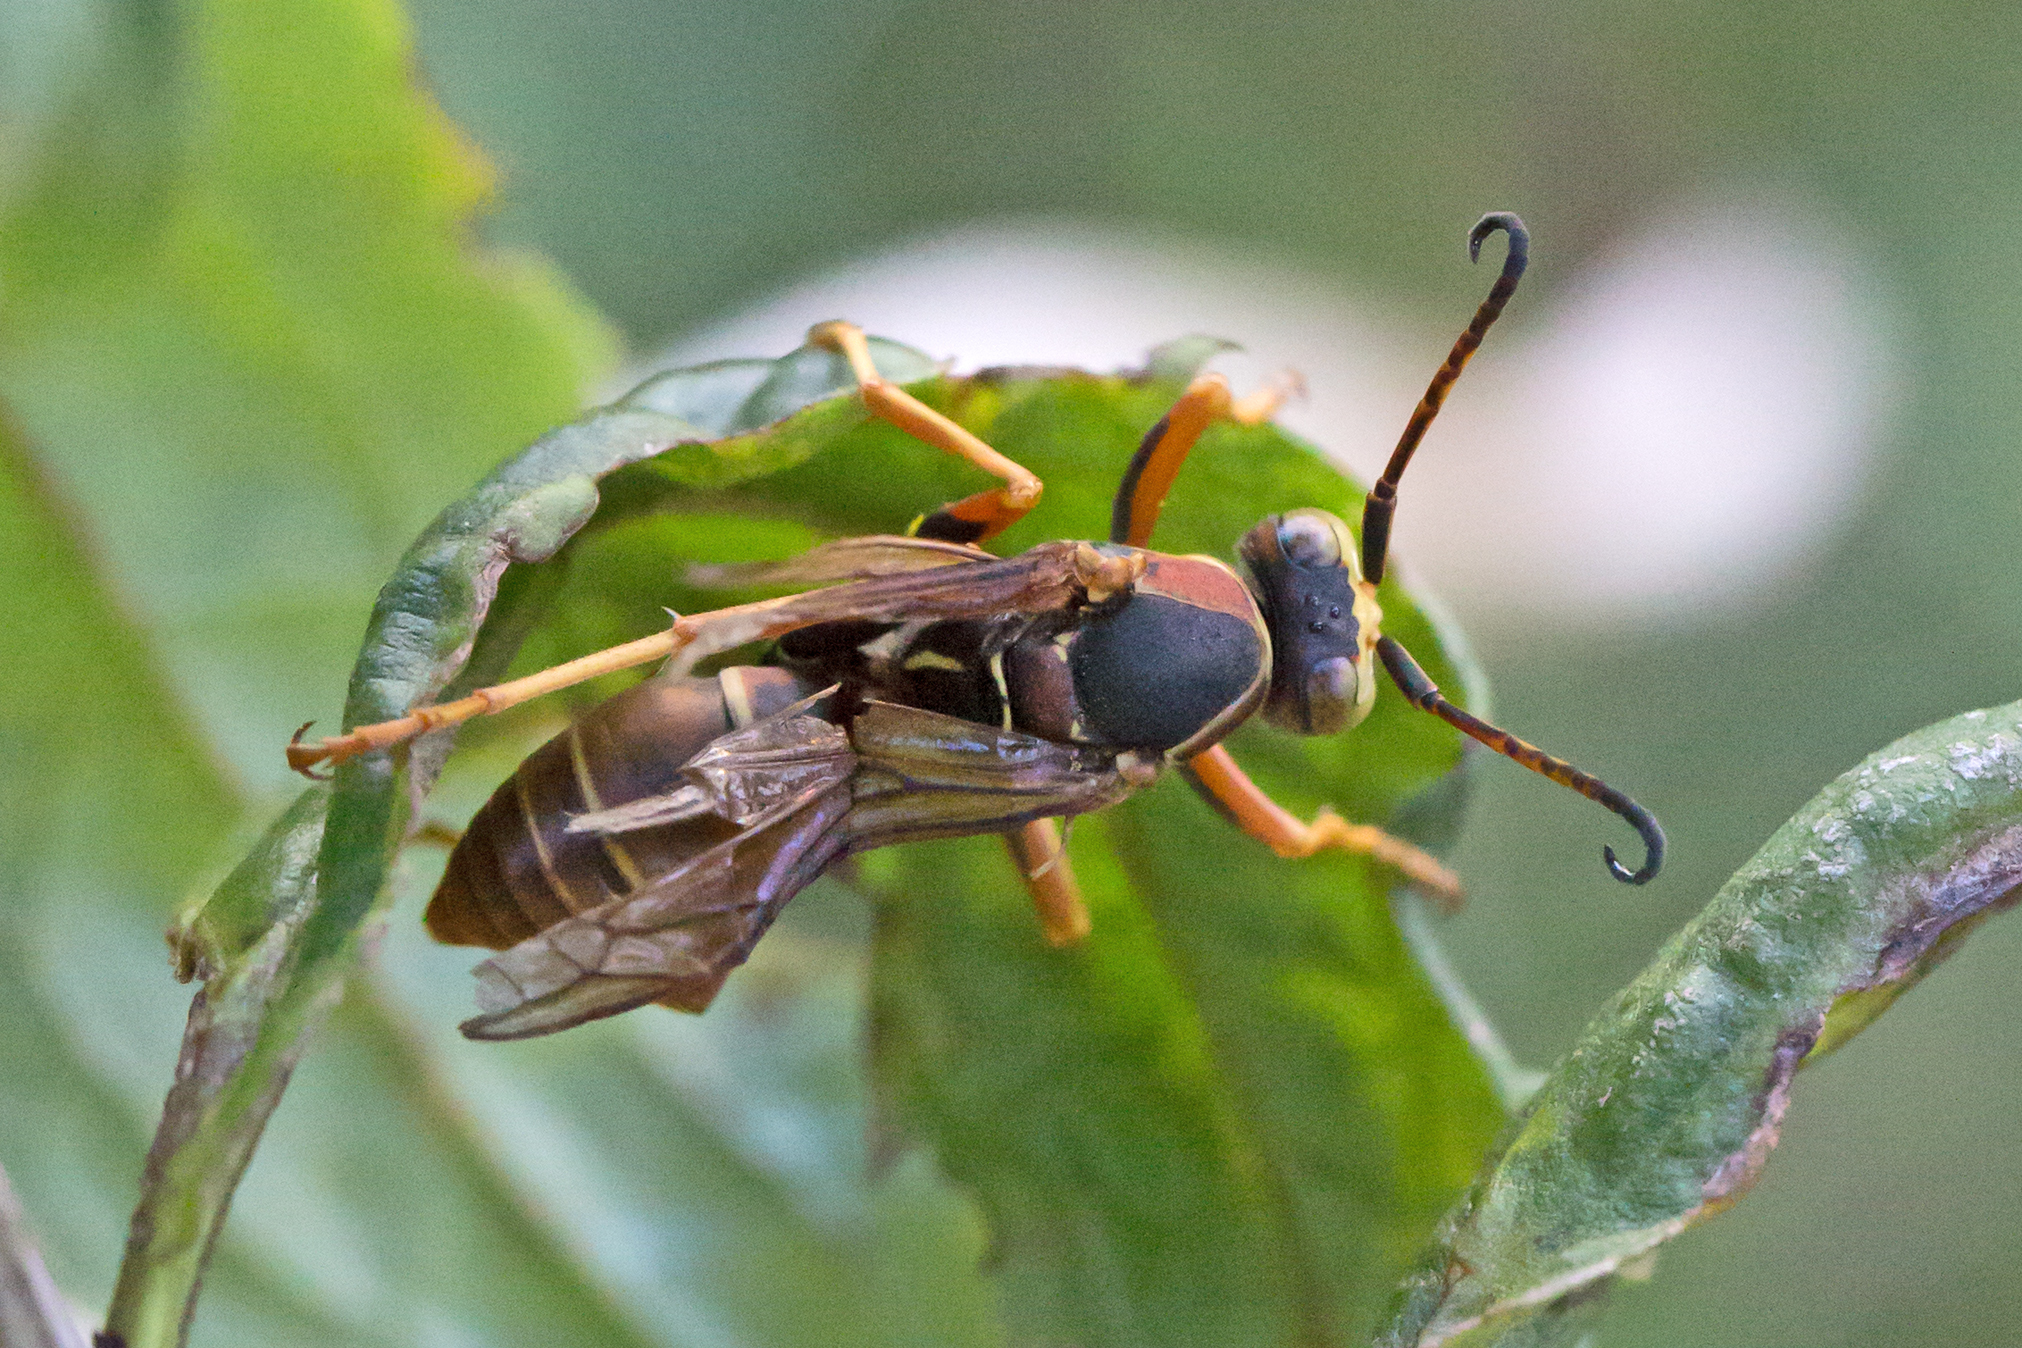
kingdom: Animalia
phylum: Arthropoda
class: Insecta
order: Hymenoptera
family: Eumenidae
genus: Polistes
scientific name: Polistes fuscatus
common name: Dark paper wasp
